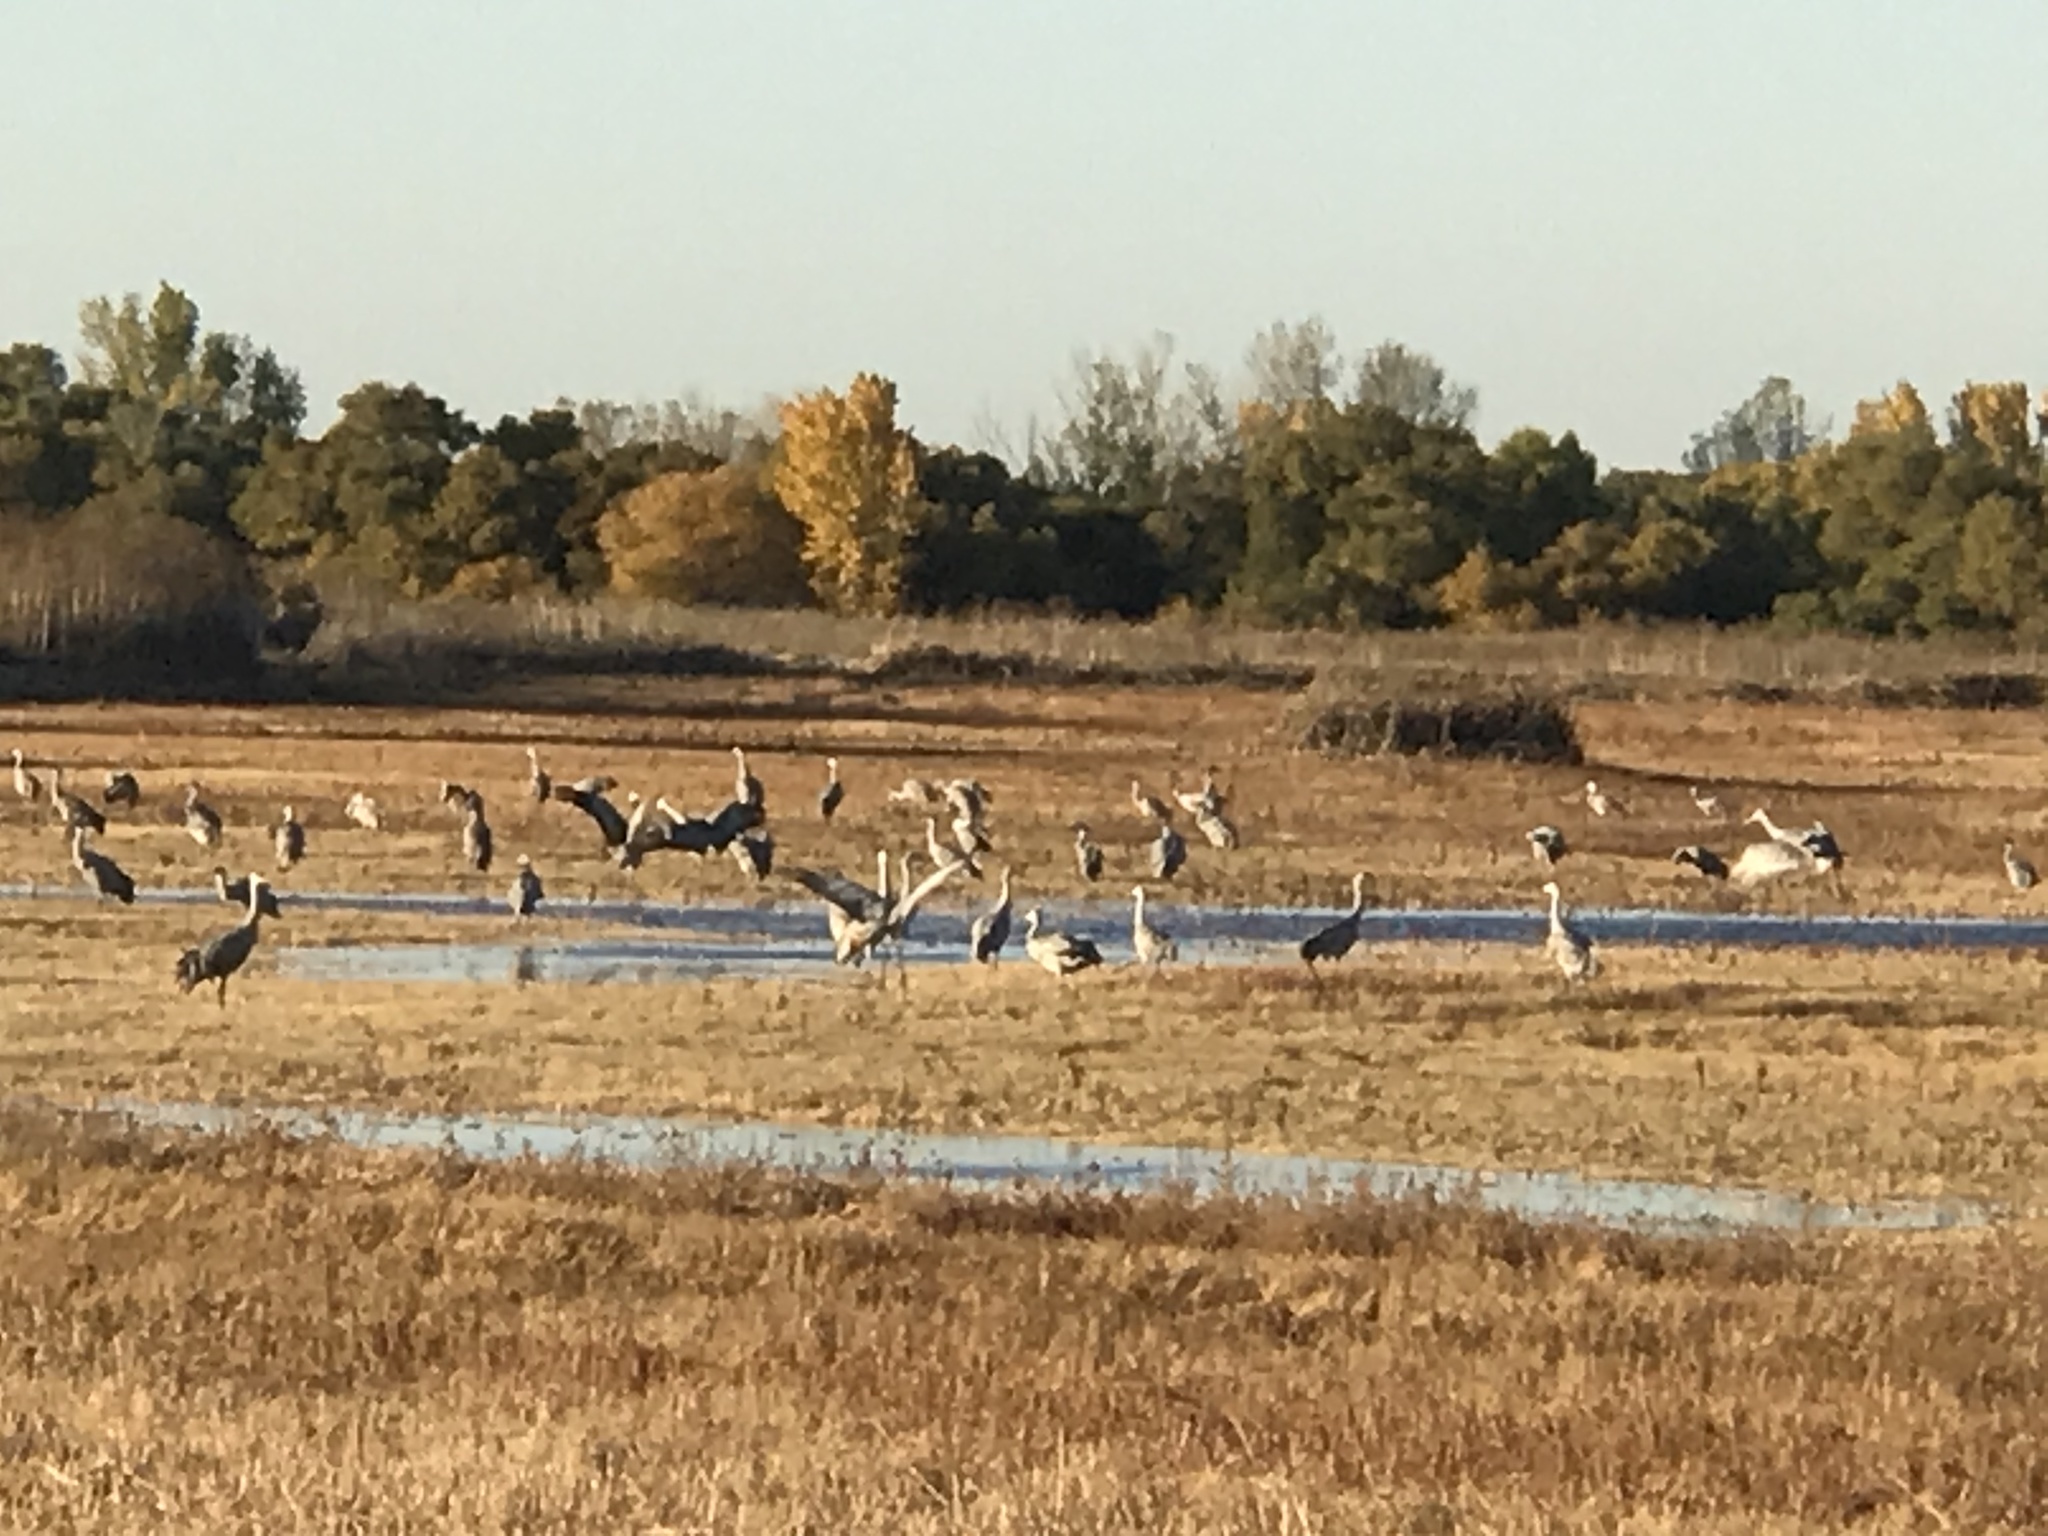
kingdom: Animalia
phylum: Chordata
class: Aves
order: Gruiformes
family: Gruidae
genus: Grus
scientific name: Grus canadensis
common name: Sandhill crane
